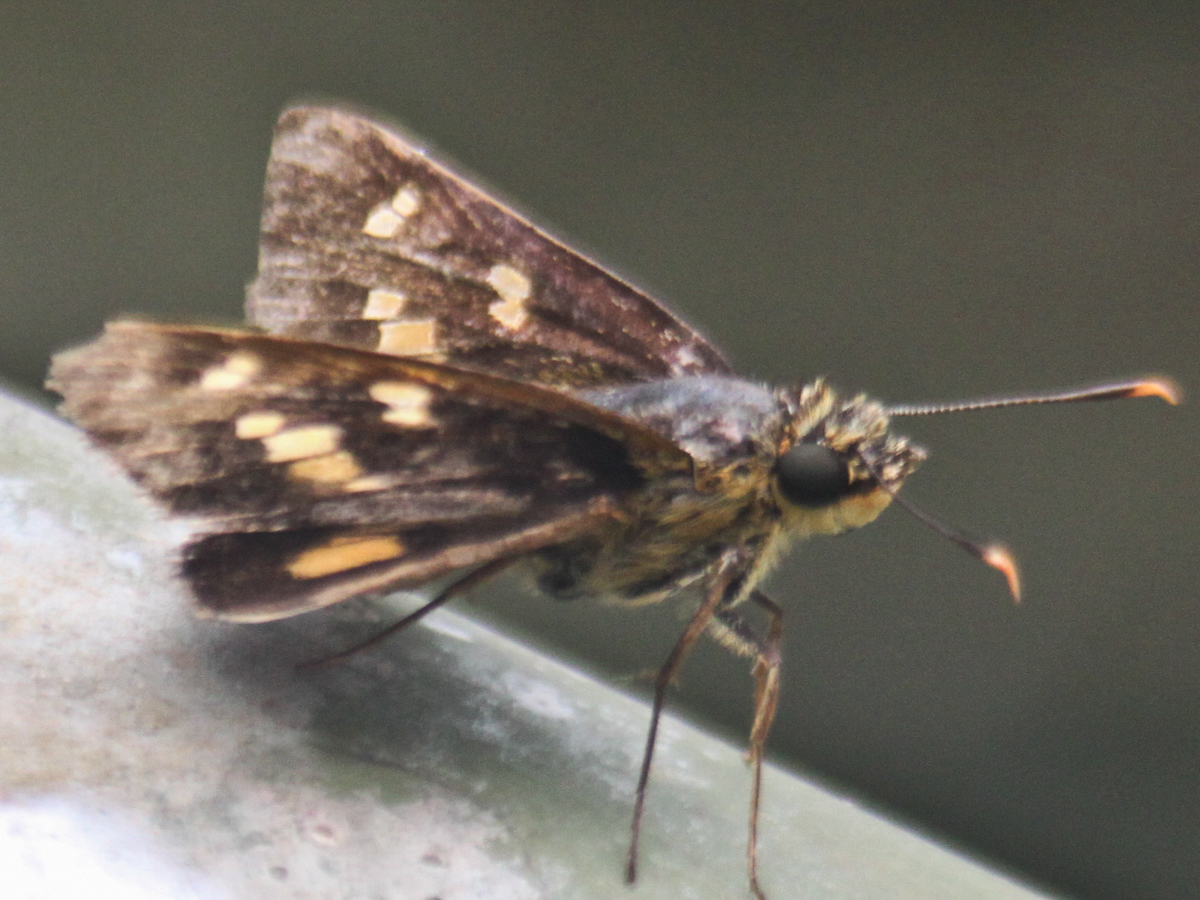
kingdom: Animalia
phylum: Arthropoda
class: Insecta
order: Lepidoptera
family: Hesperiidae
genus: Thoressa
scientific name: Thoressa masoni
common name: Golden ace
